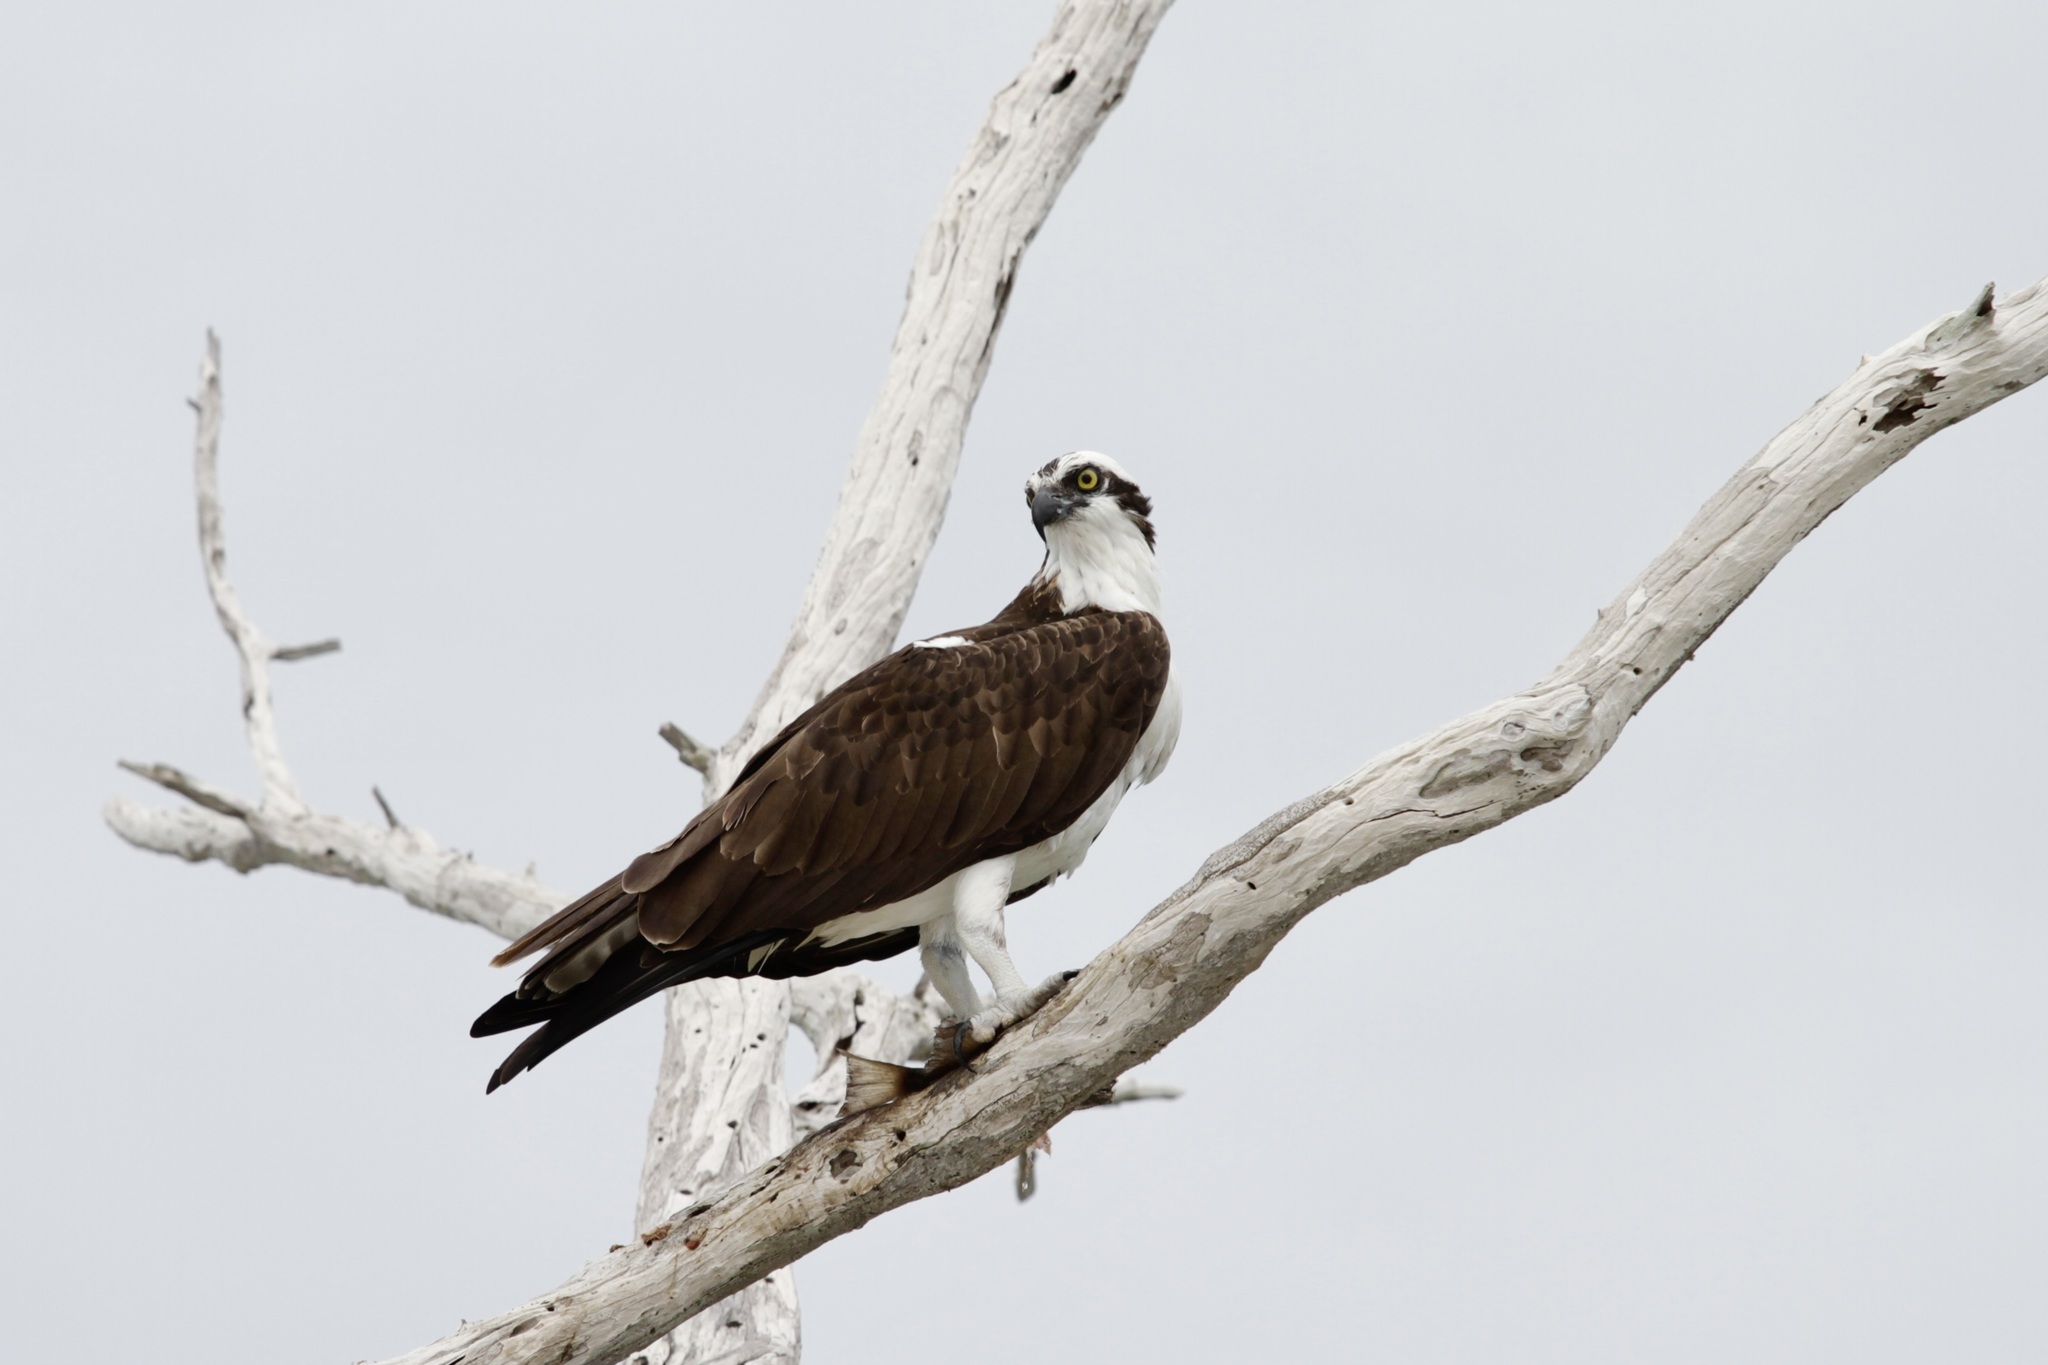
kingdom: Animalia
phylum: Chordata
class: Aves
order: Accipitriformes
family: Pandionidae
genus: Pandion
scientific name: Pandion haliaetus
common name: Osprey
